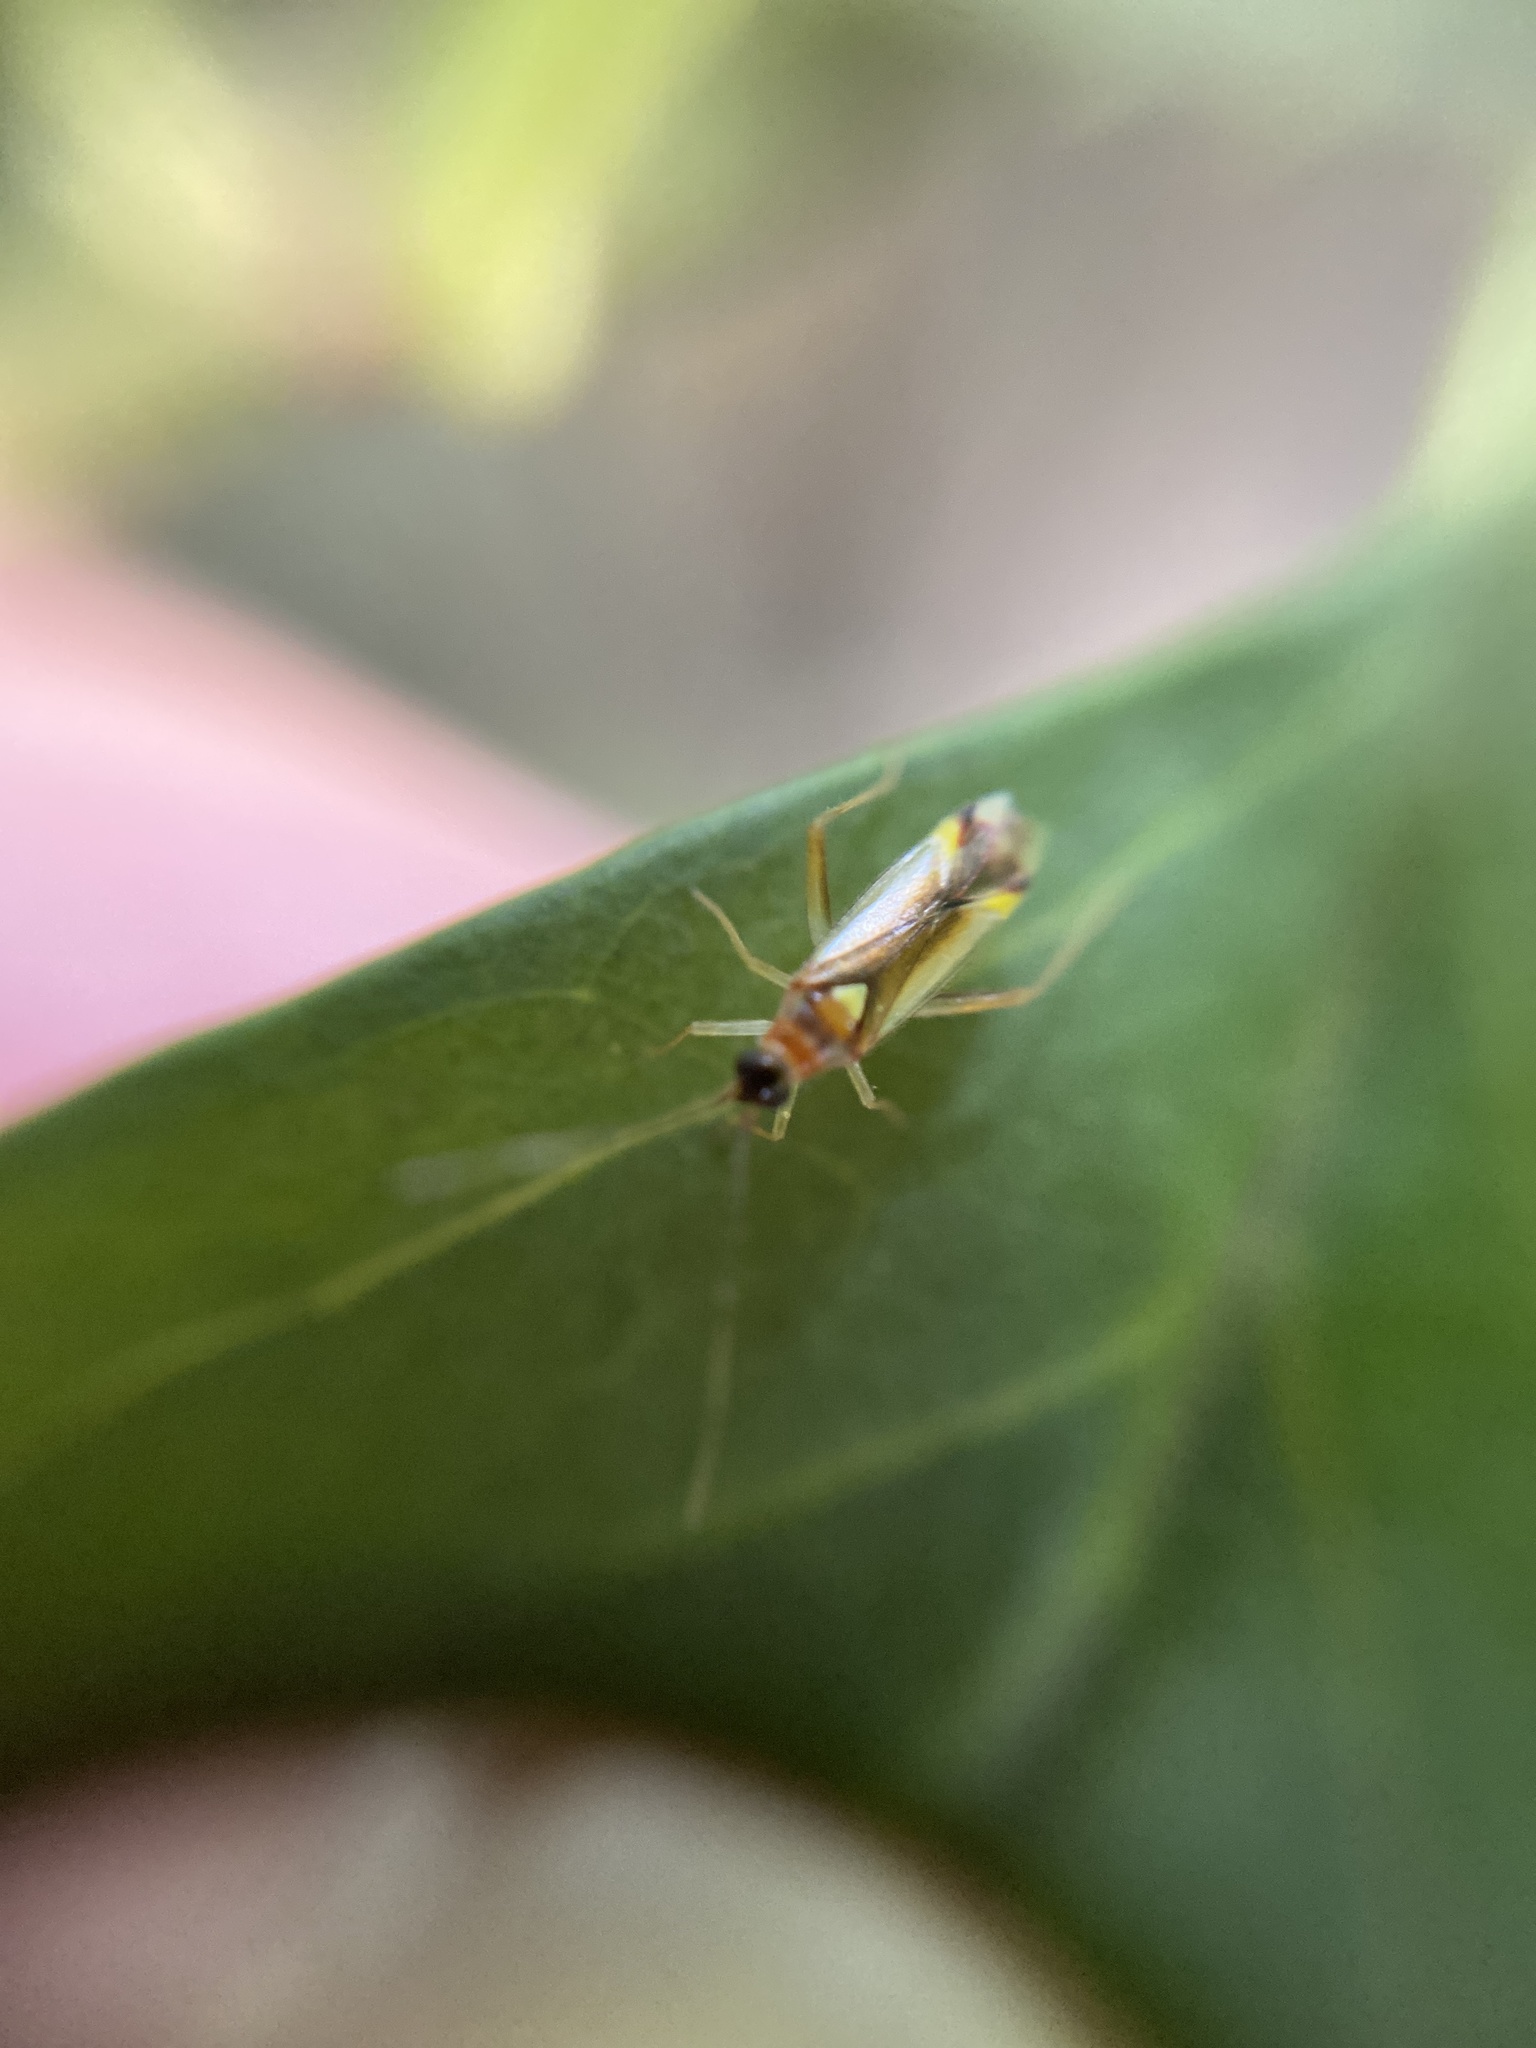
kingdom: Animalia
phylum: Arthropoda
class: Insecta
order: Hemiptera
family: Miridae
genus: Campyloneura
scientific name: Campyloneura virgula
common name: Predatory bug
